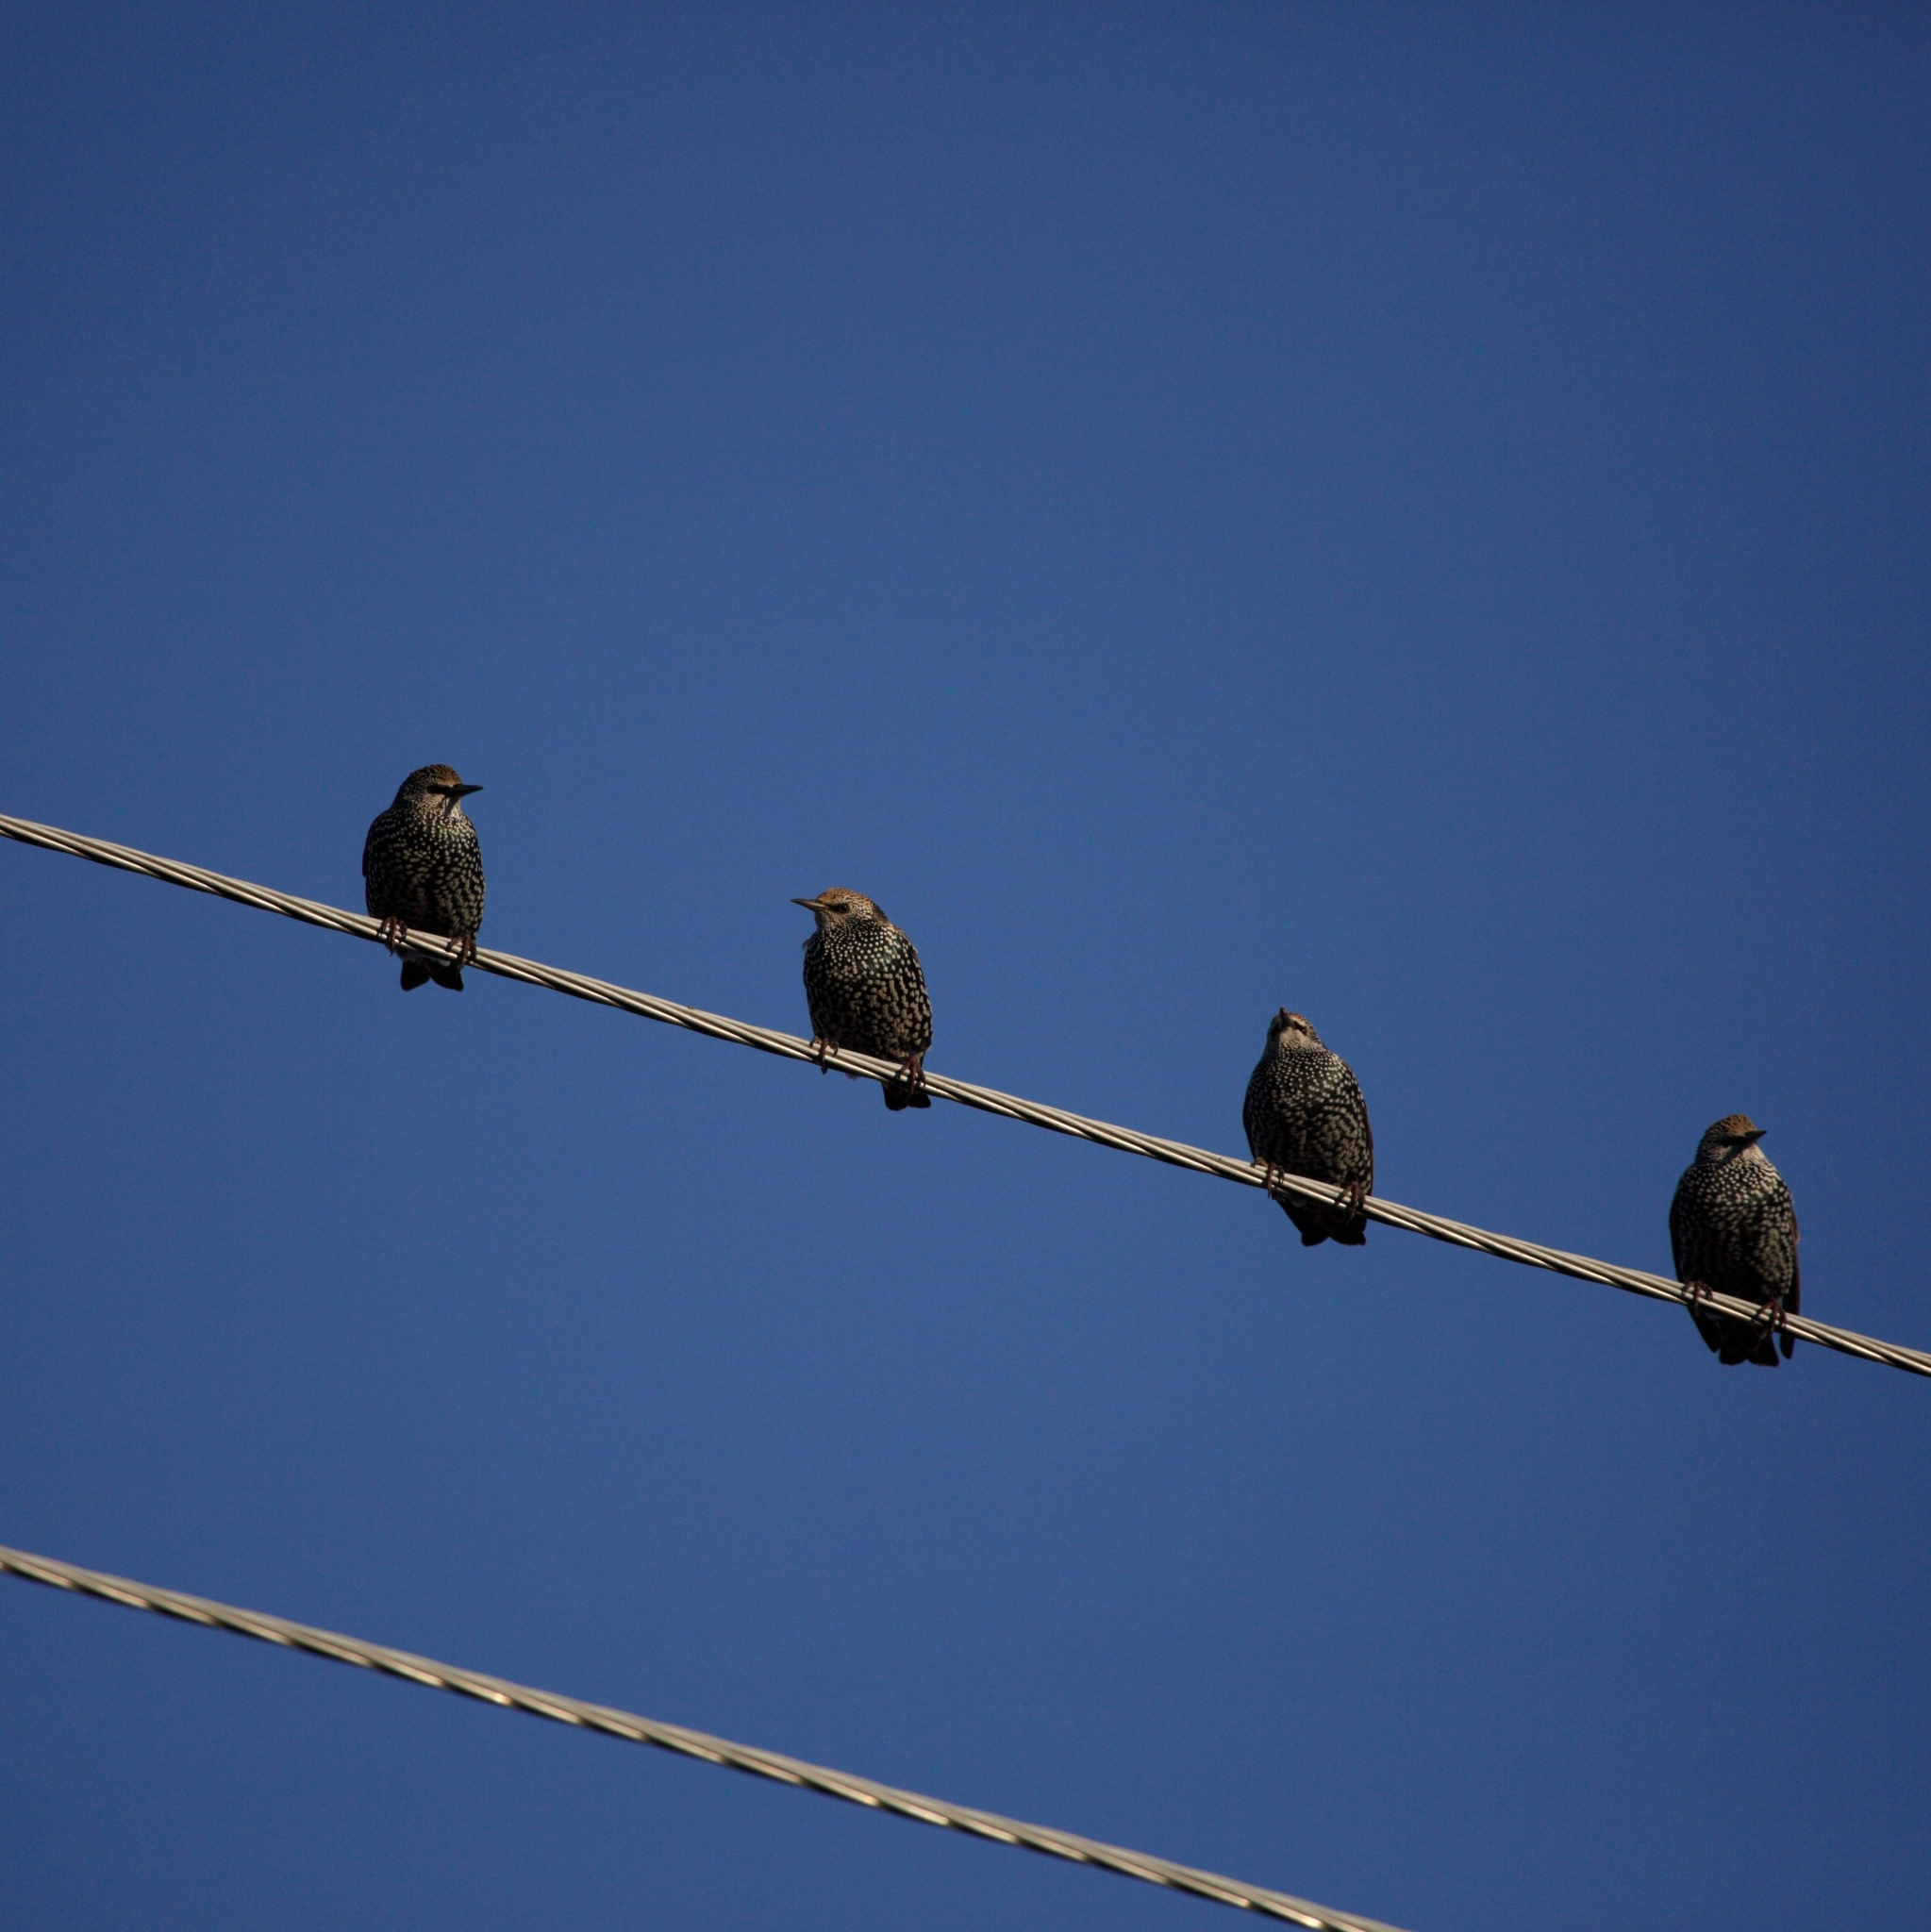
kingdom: Animalia
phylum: Chordata
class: Aves
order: Passeriformes
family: Sturnidae
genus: Sturnus
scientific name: Sturnus vulgaris
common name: Common starling
